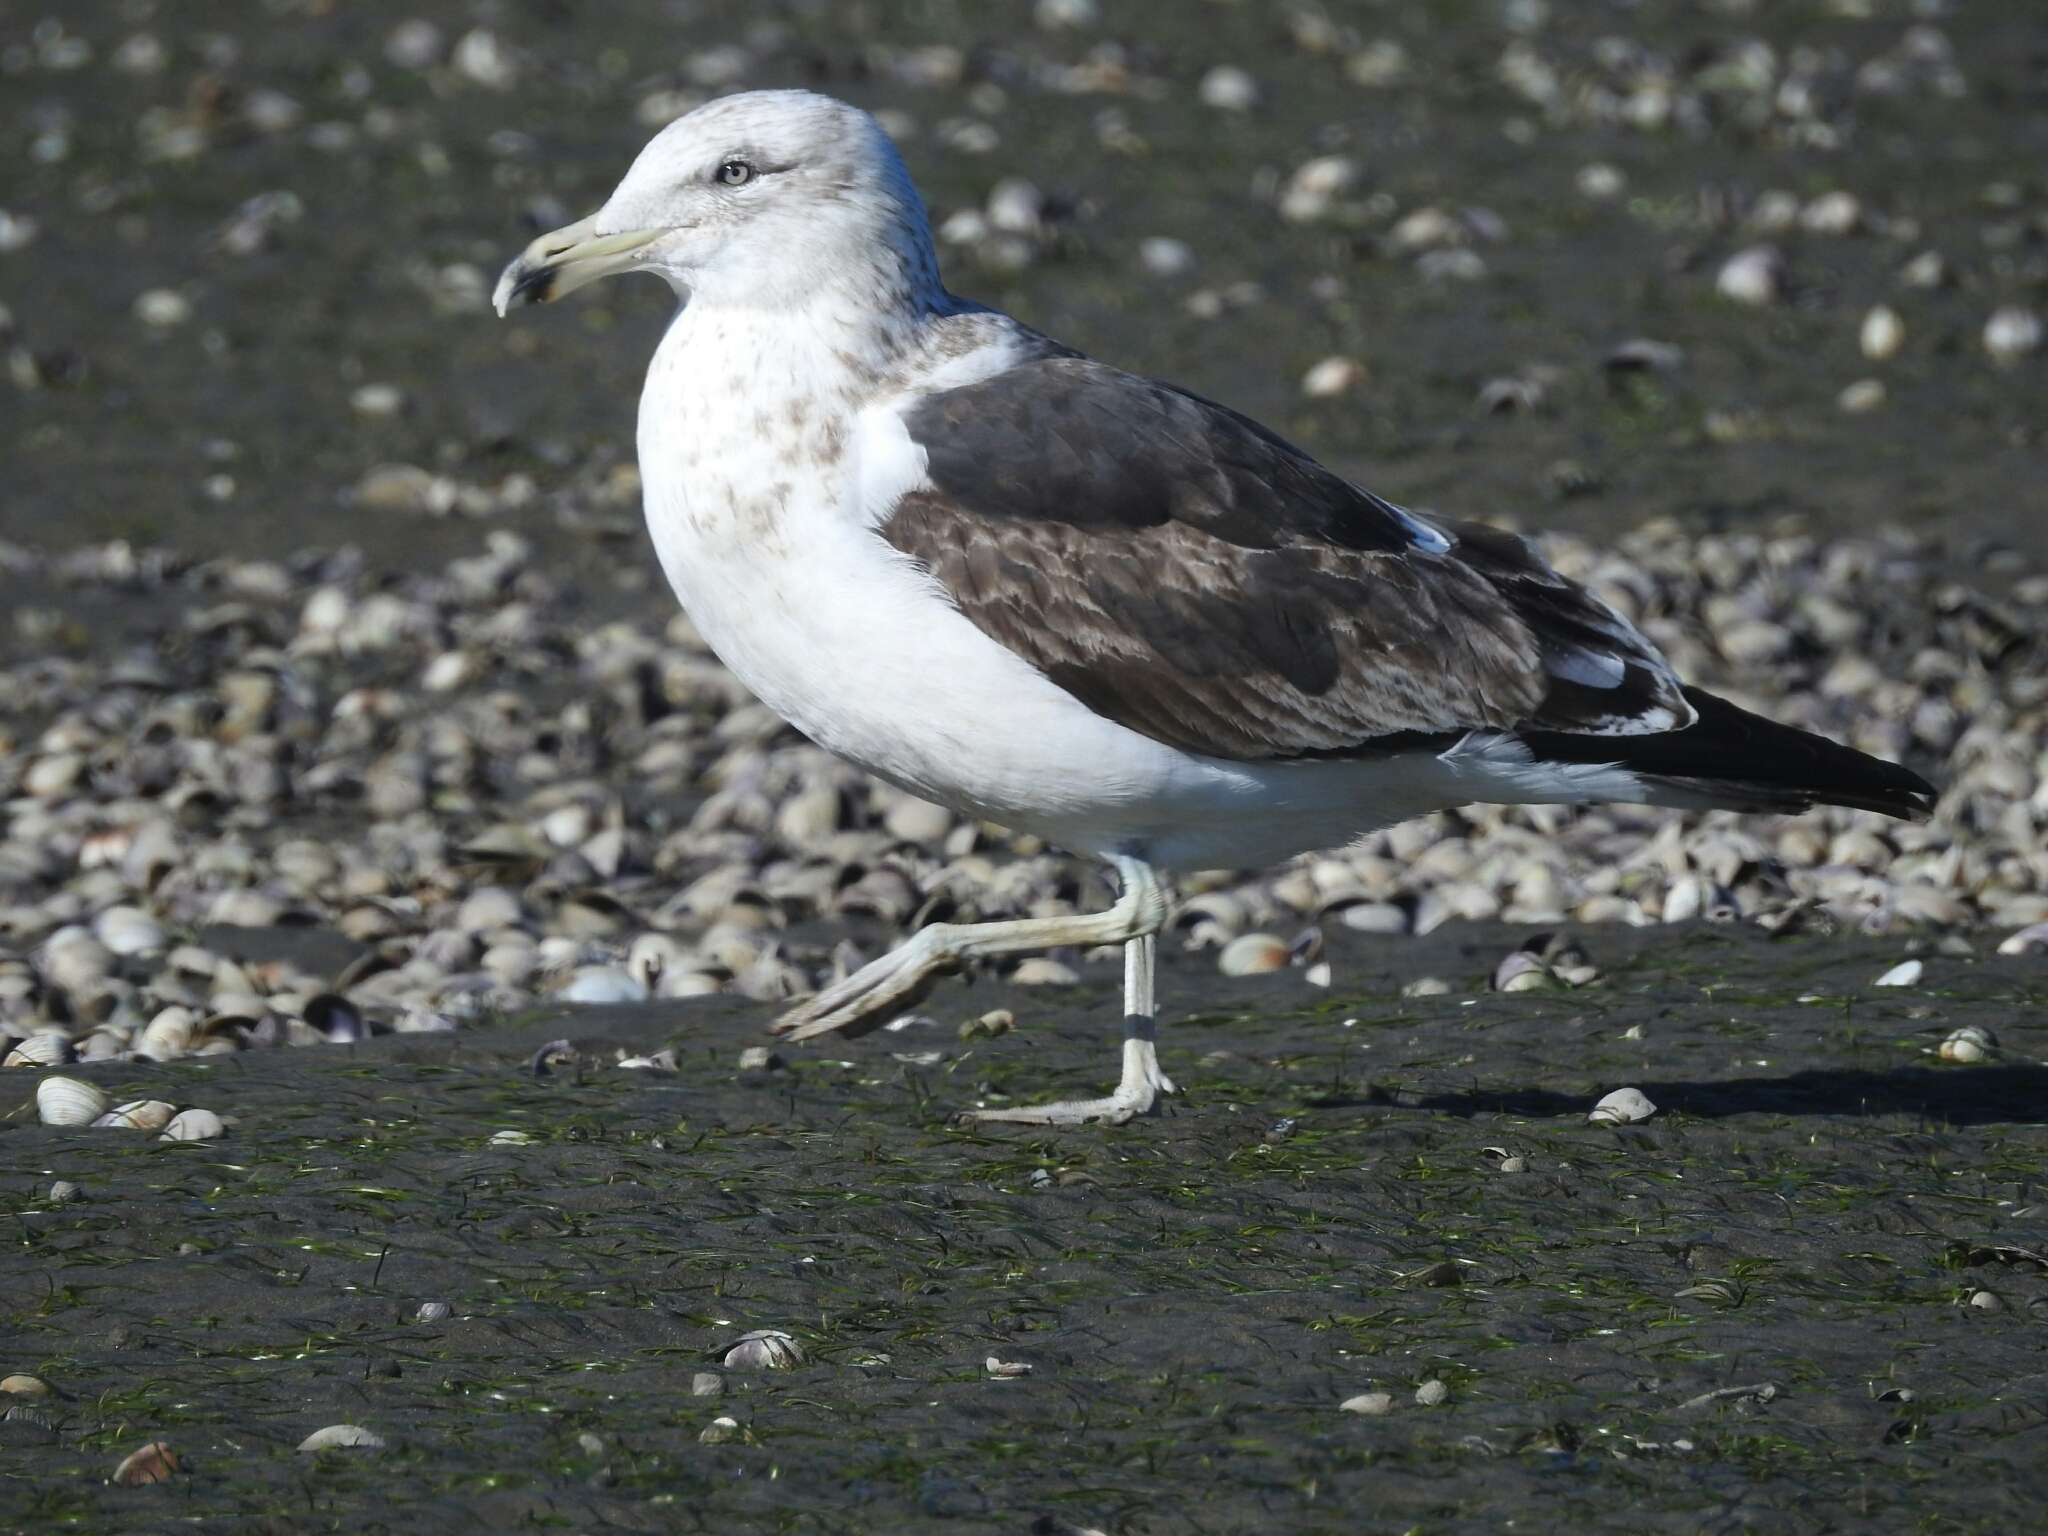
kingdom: Animalia
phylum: Chordata
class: Aves
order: Charadriiformes
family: Laridae
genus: Larus
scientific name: Larus dominicanus
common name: Kelp gull
